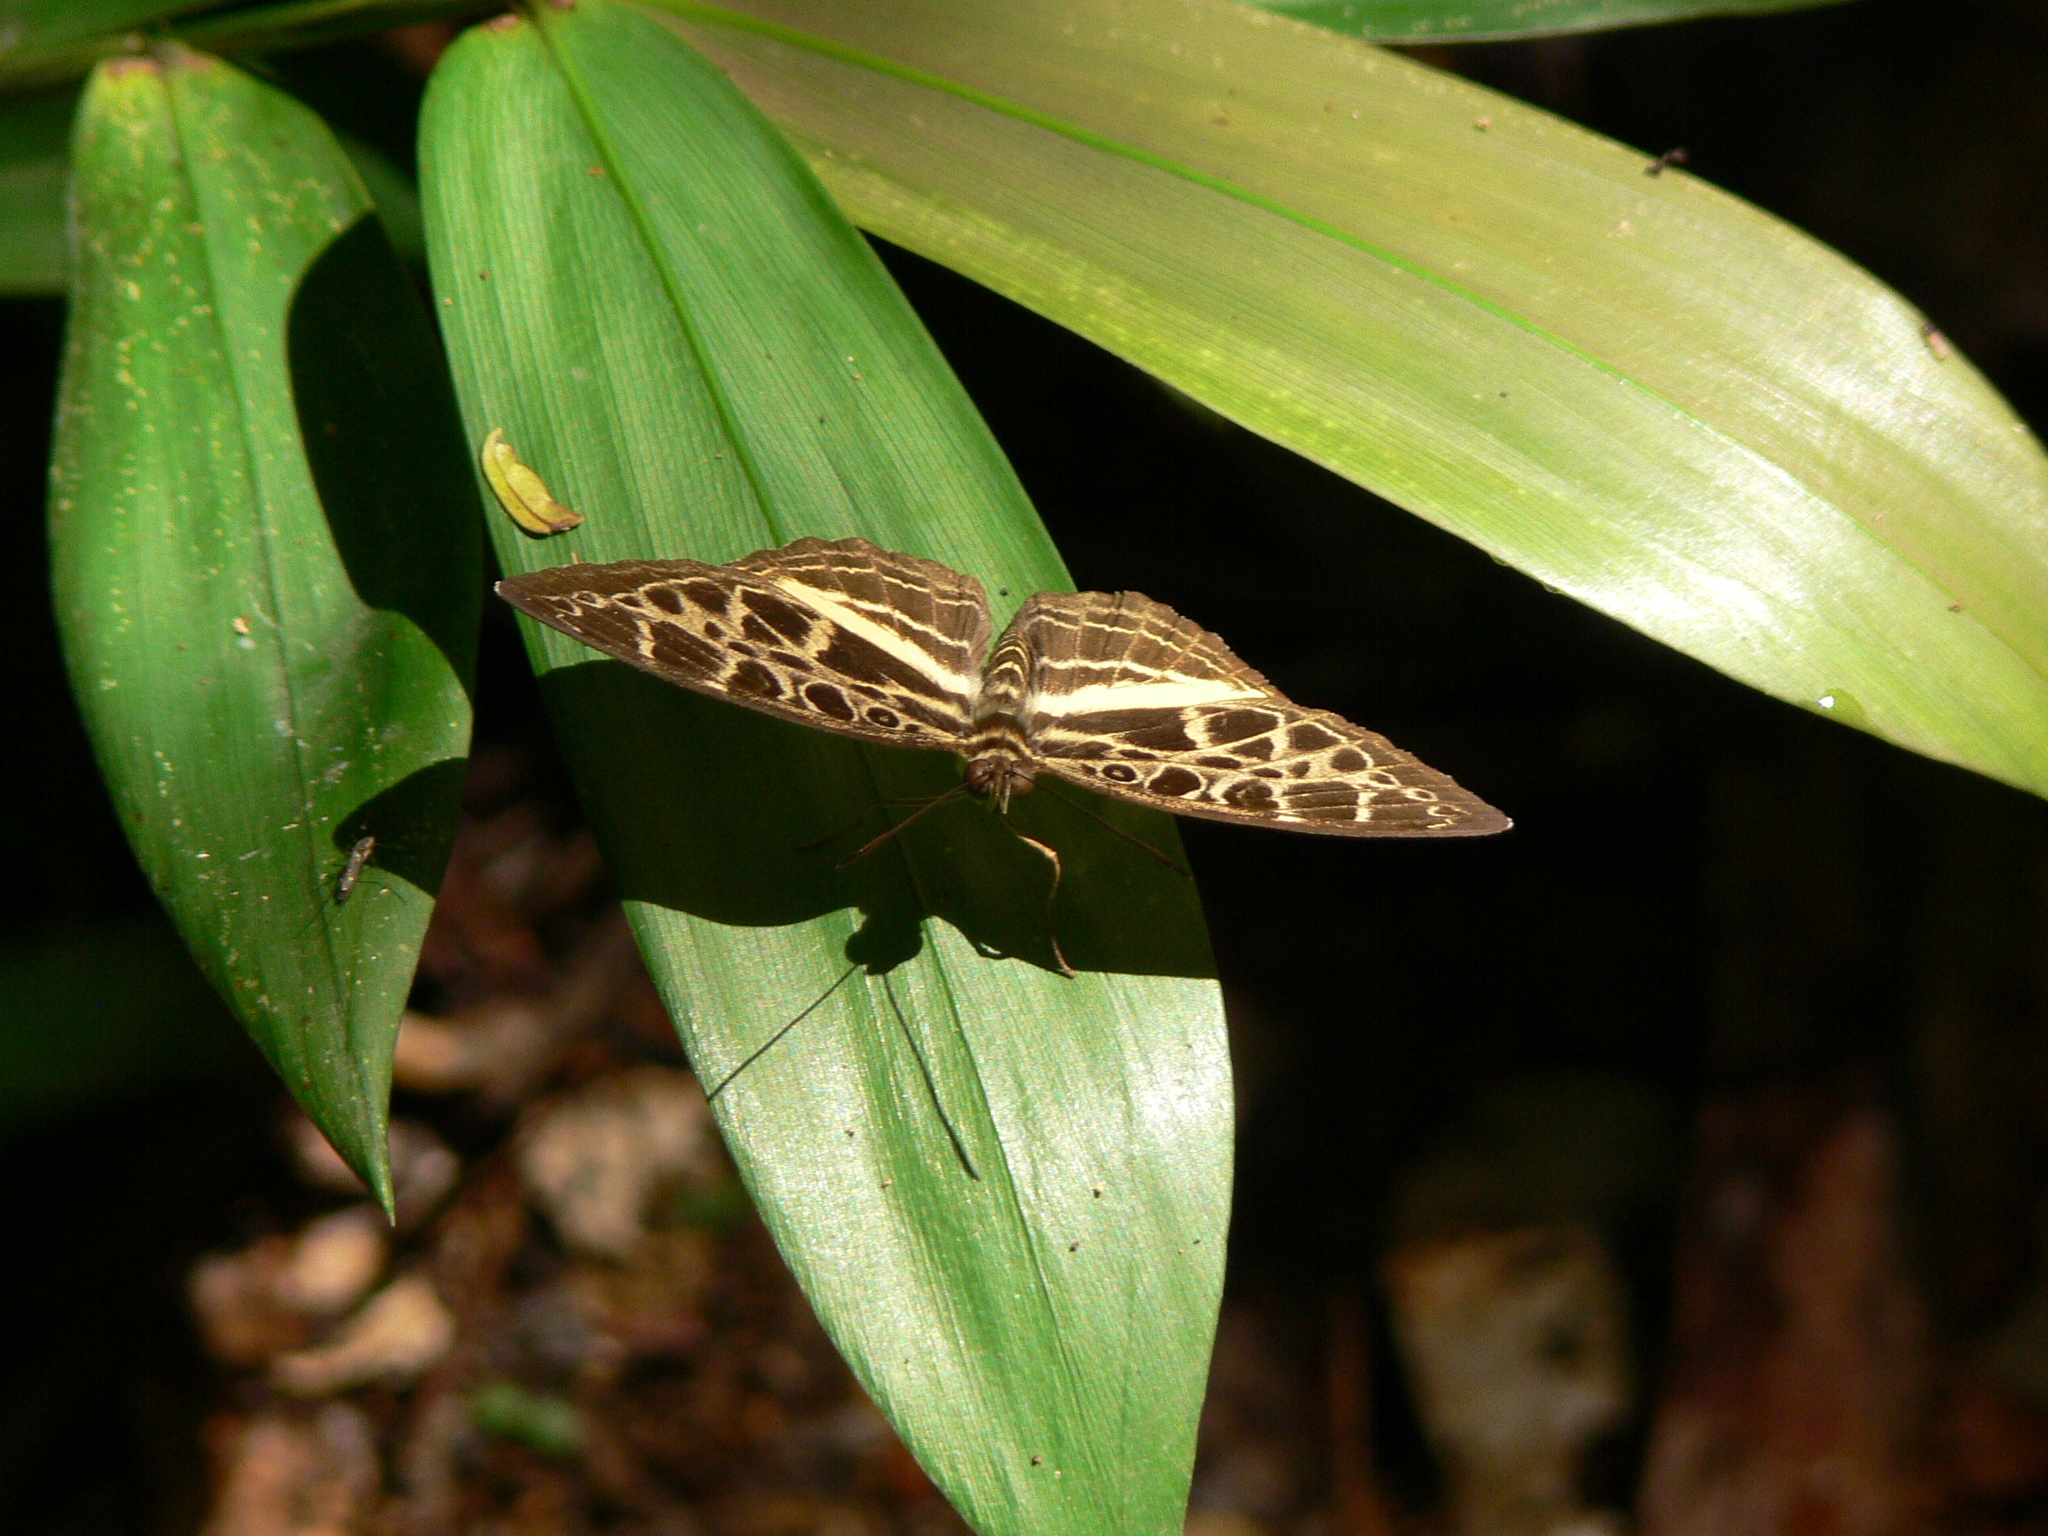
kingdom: Animalia
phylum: Arthropoda
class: Insecta
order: Lepidoptera
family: Nymphalidae
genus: Catuna
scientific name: Catuna
